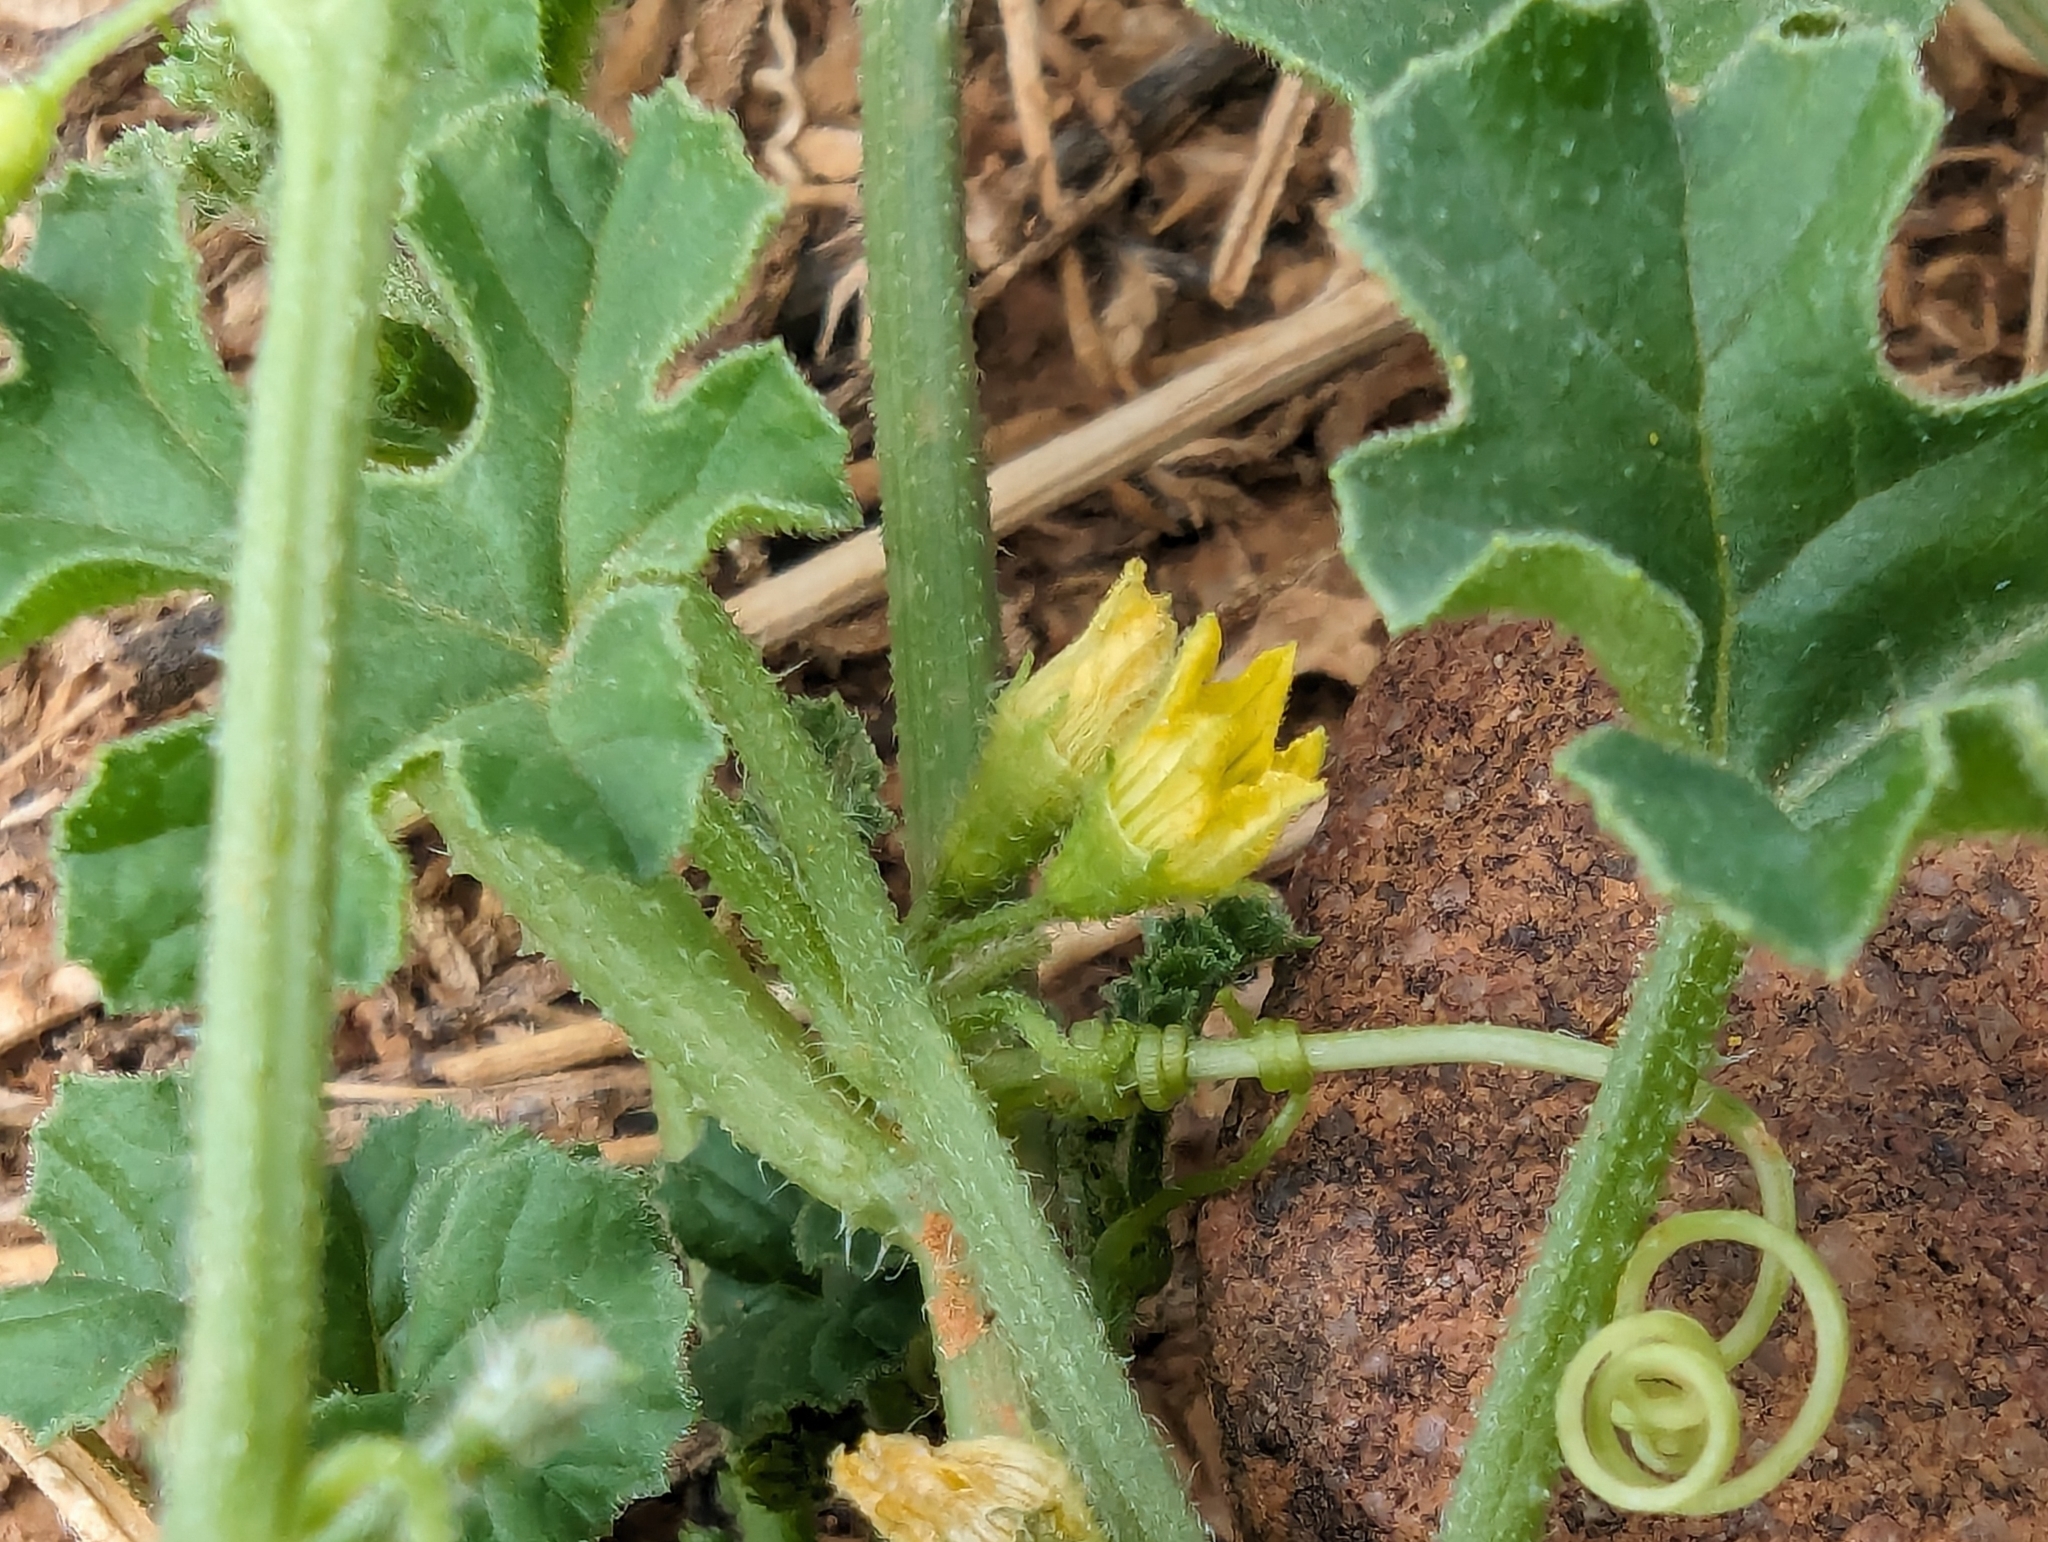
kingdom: Plantae
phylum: Tracheophyta
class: Magnoliopsida
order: Cucurbitales
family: Cucurbitaceae
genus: Cucumis
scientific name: Cucumis myriocarpus
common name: Gooseberry cucumber
